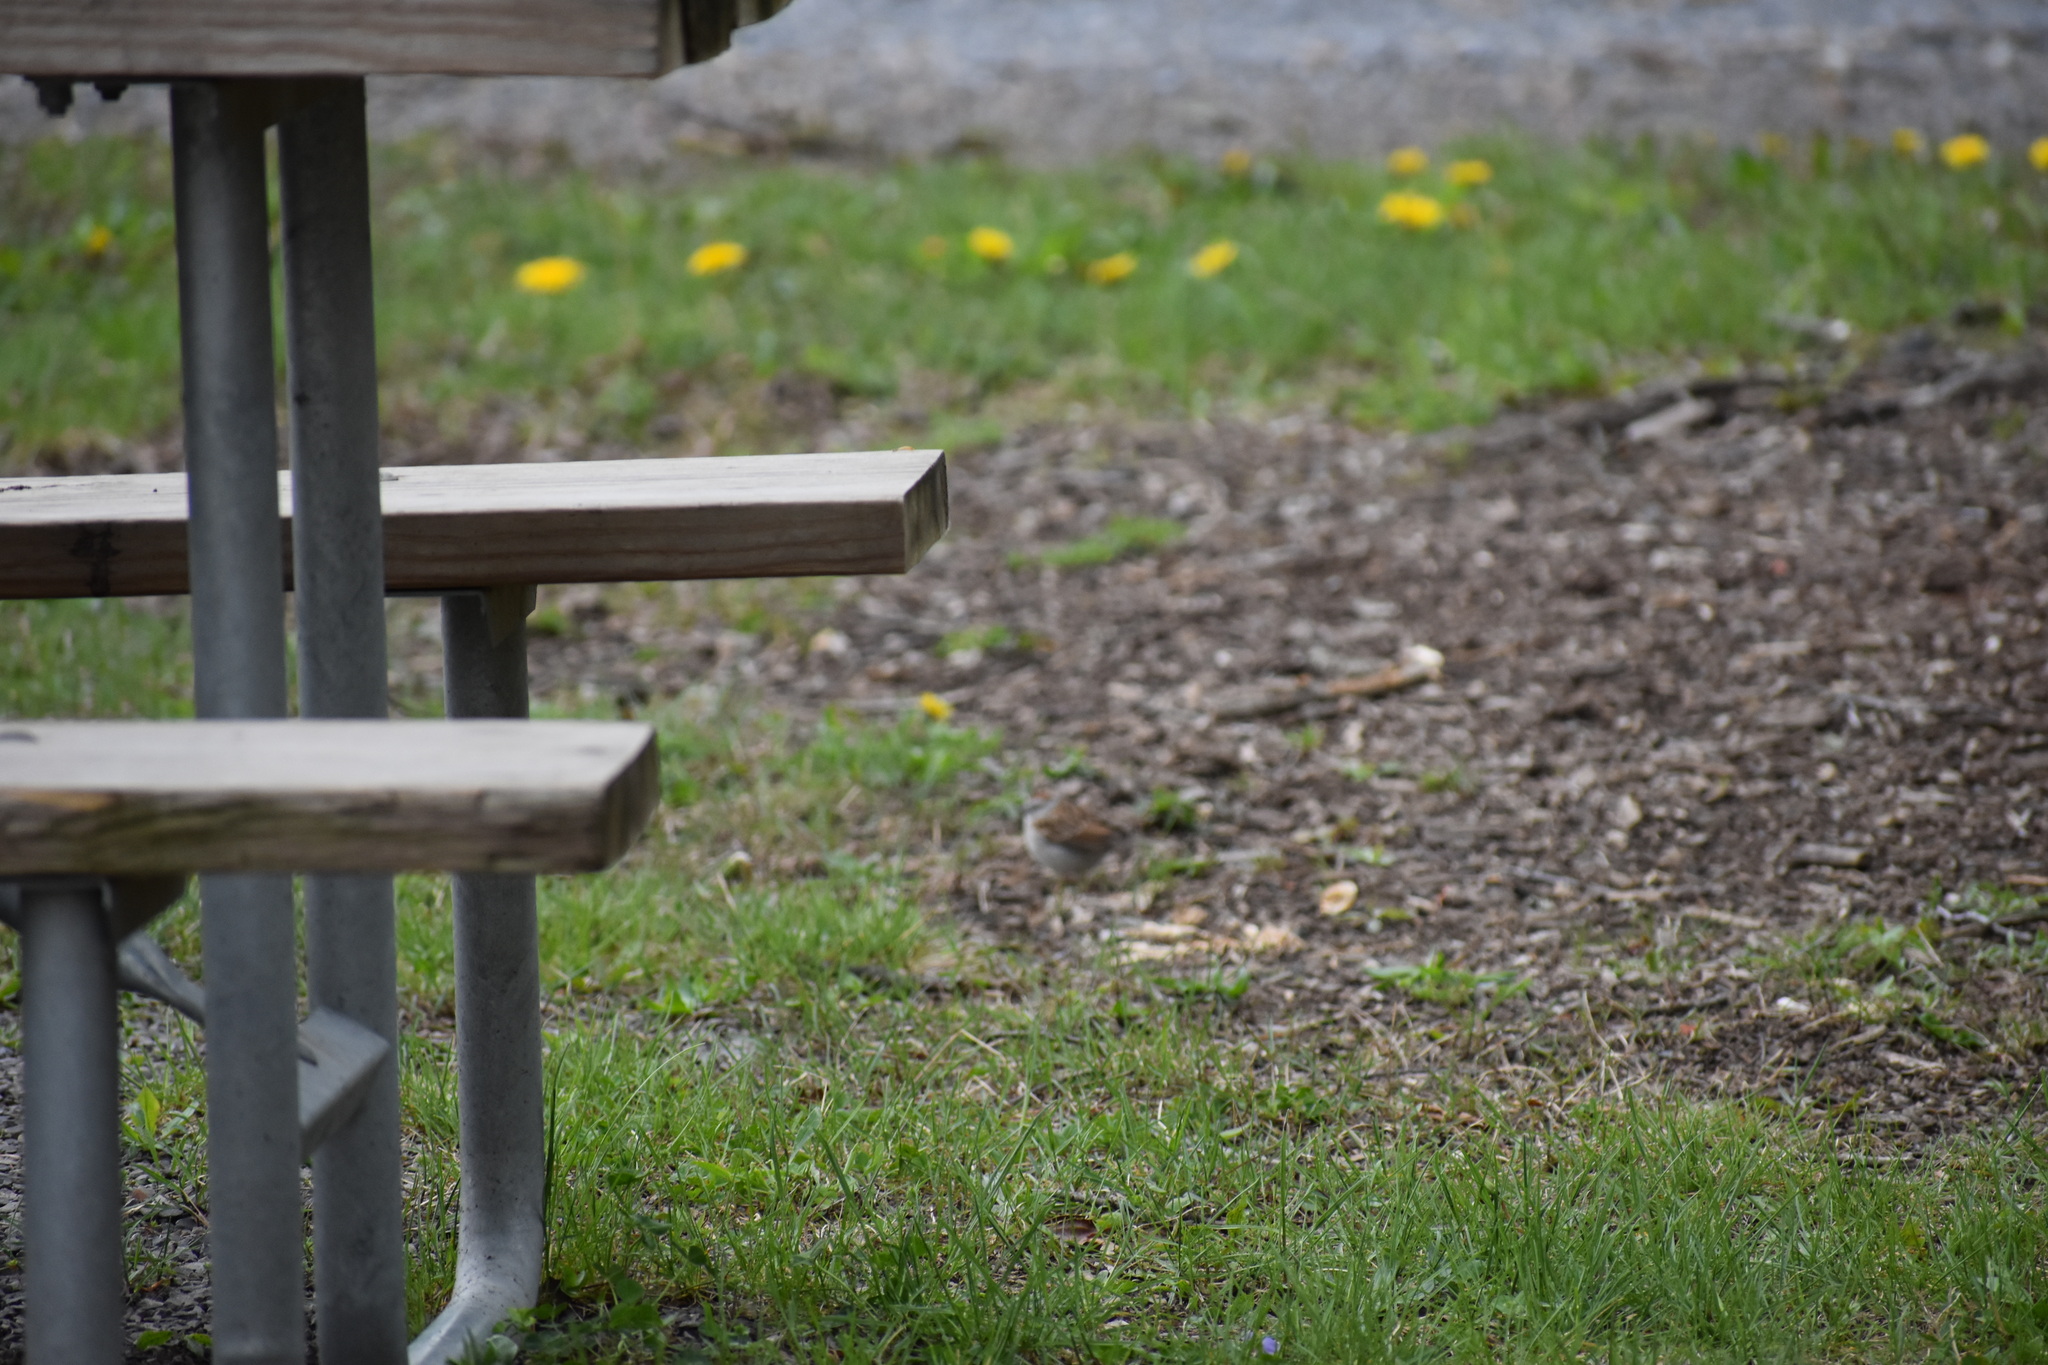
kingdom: Animalia
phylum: Chordata
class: Aves
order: Passeriformes
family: Passerellidae
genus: Spizella
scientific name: Spizella passerina
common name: Chipping sparrow
